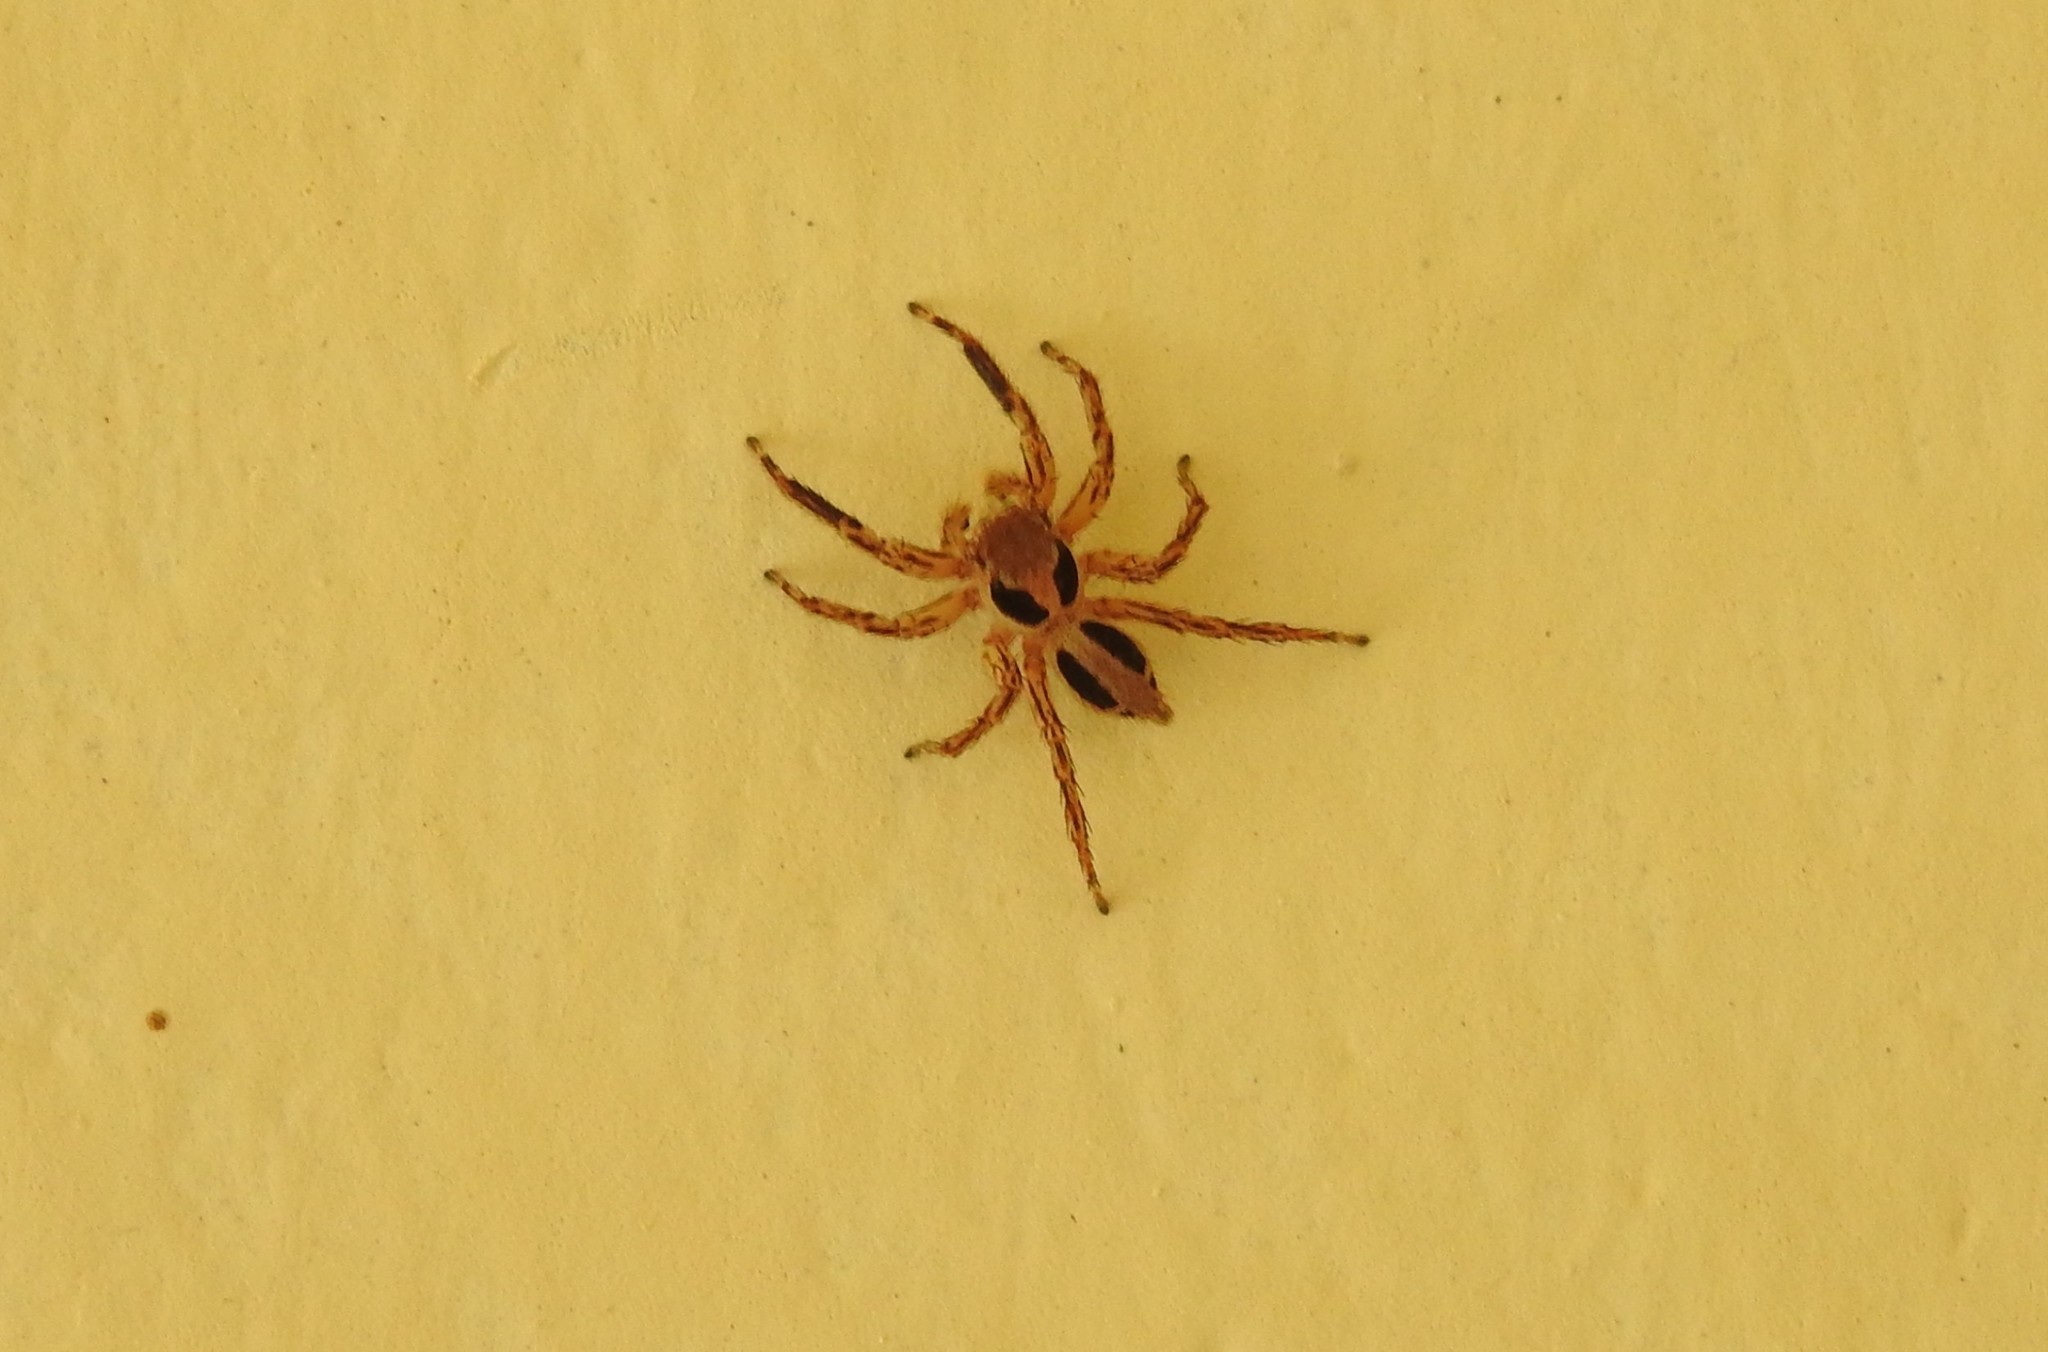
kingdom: Animalia
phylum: Arthropoda
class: Arachnida
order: Araneae
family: Salticidae
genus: Plexippus
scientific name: Plexippus petersi
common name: Jumping spider
